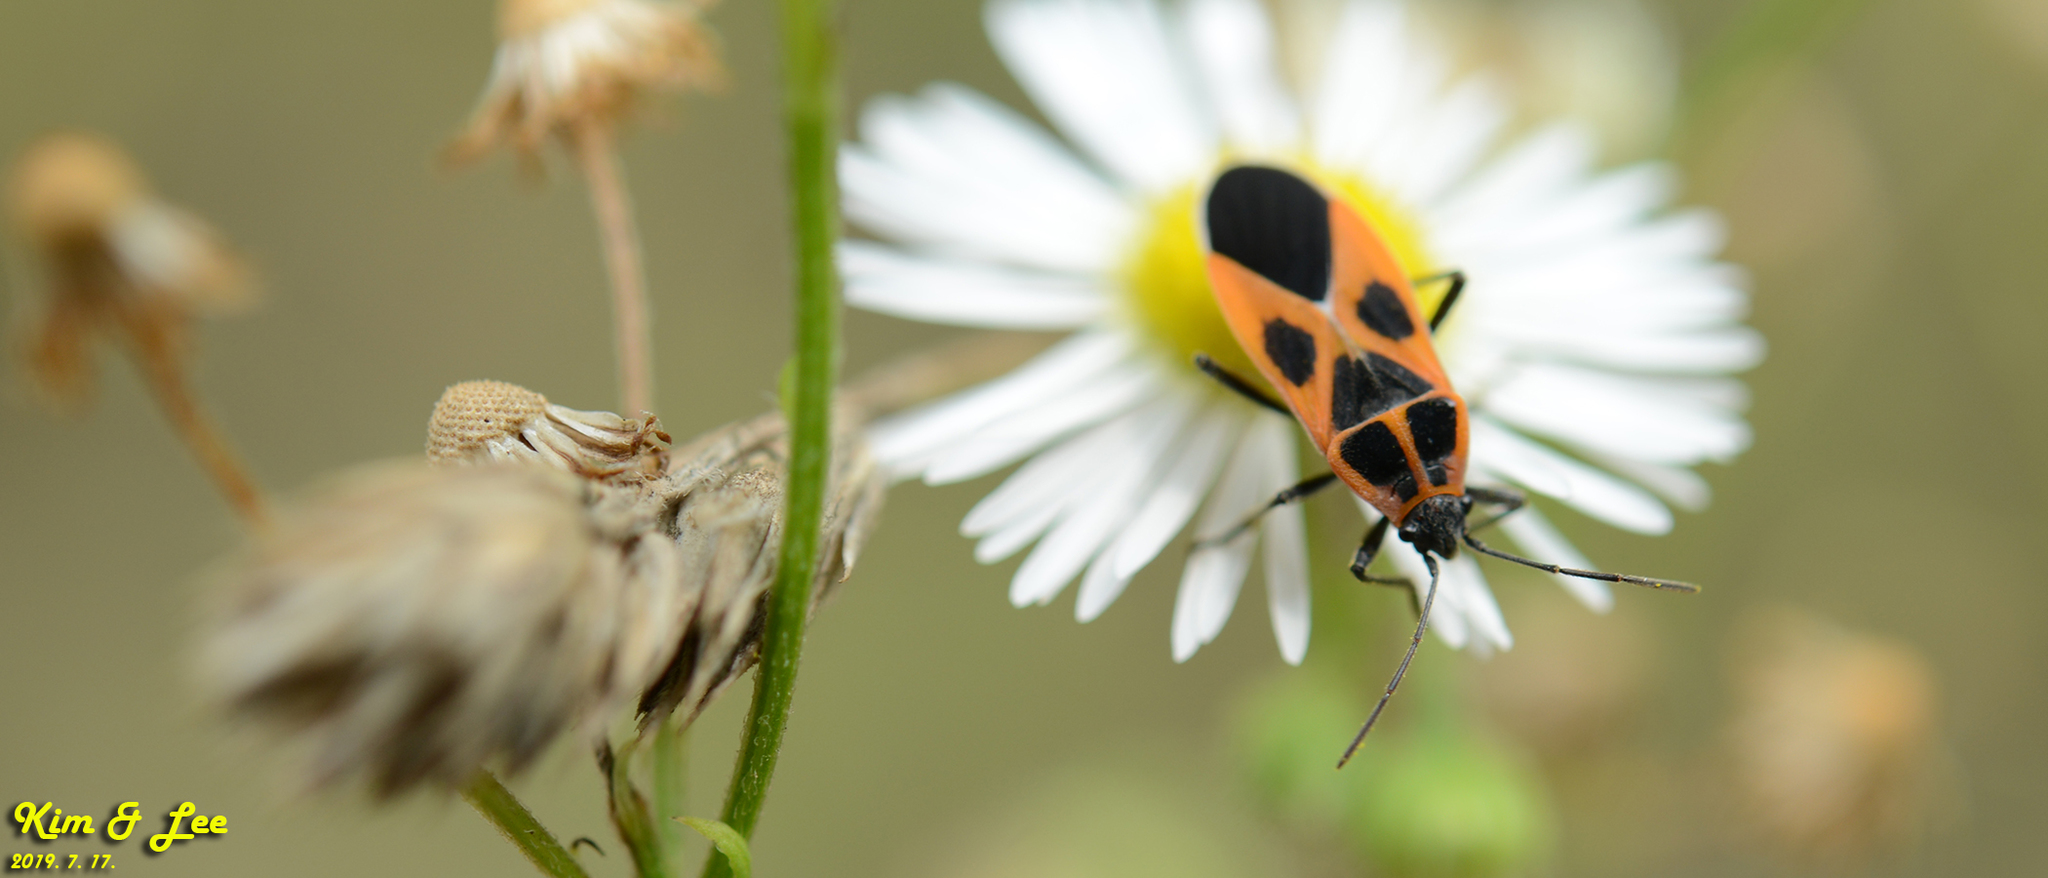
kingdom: Animalia
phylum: Arthropoda
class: Insecta
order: Hemiptera
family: Lygaeidae
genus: Tropidothorax
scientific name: Tropidothorax cruciger
